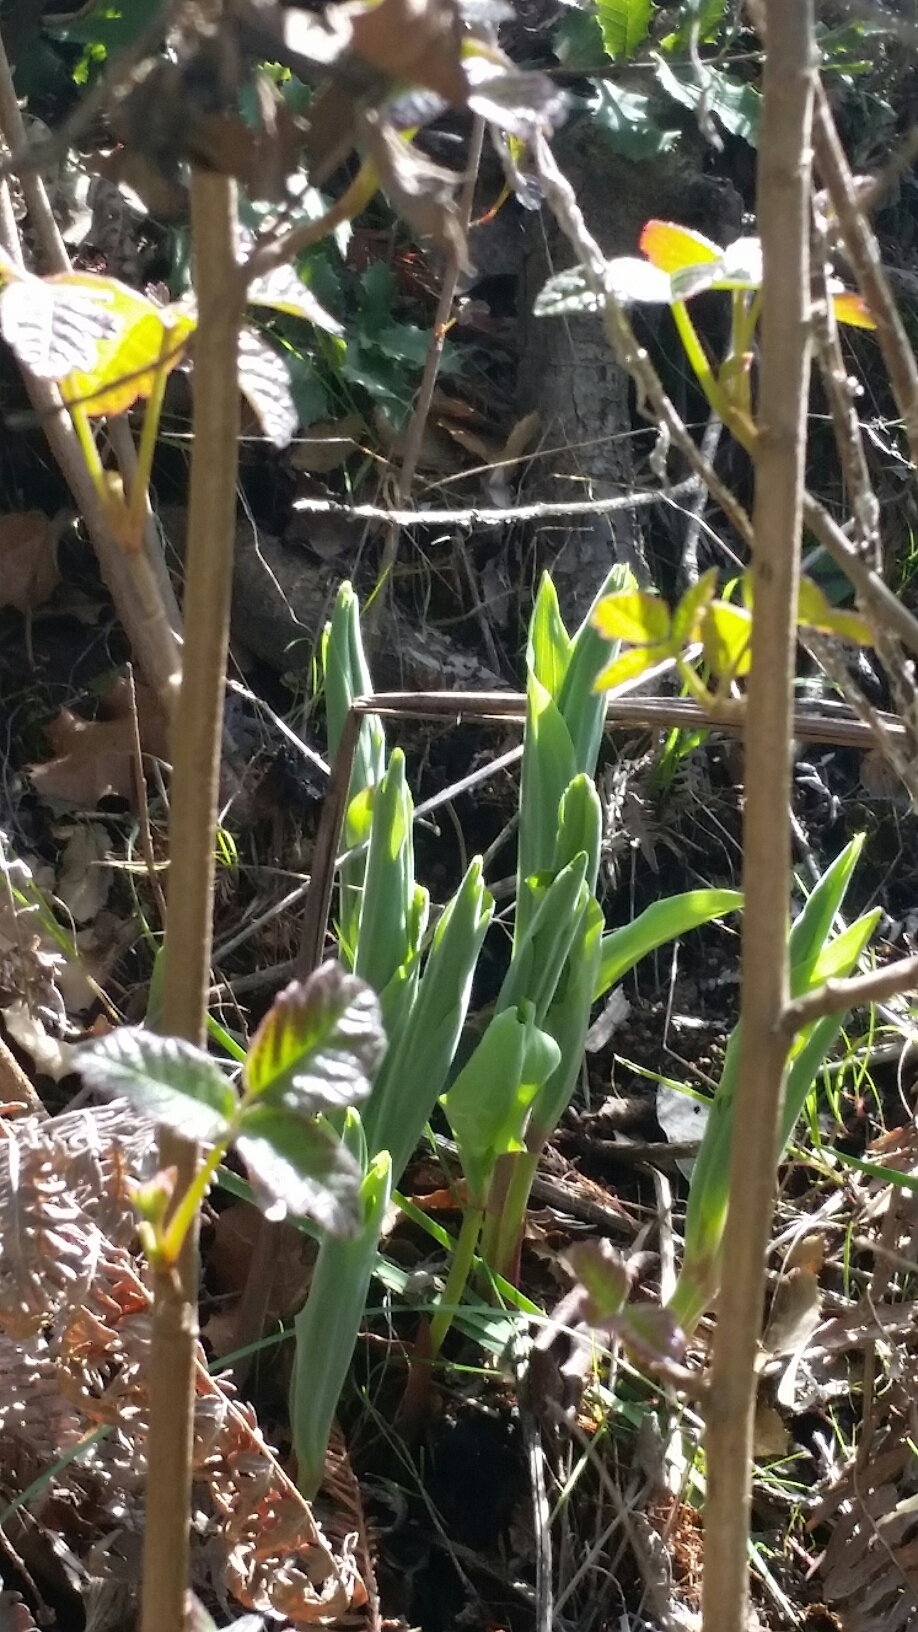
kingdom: Plantae
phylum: Tracheophyta
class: Liliopsida
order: Asparagales
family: Asparagaceae
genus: Maianthemum
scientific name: Maianthemum racemosum
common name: False spikenard
